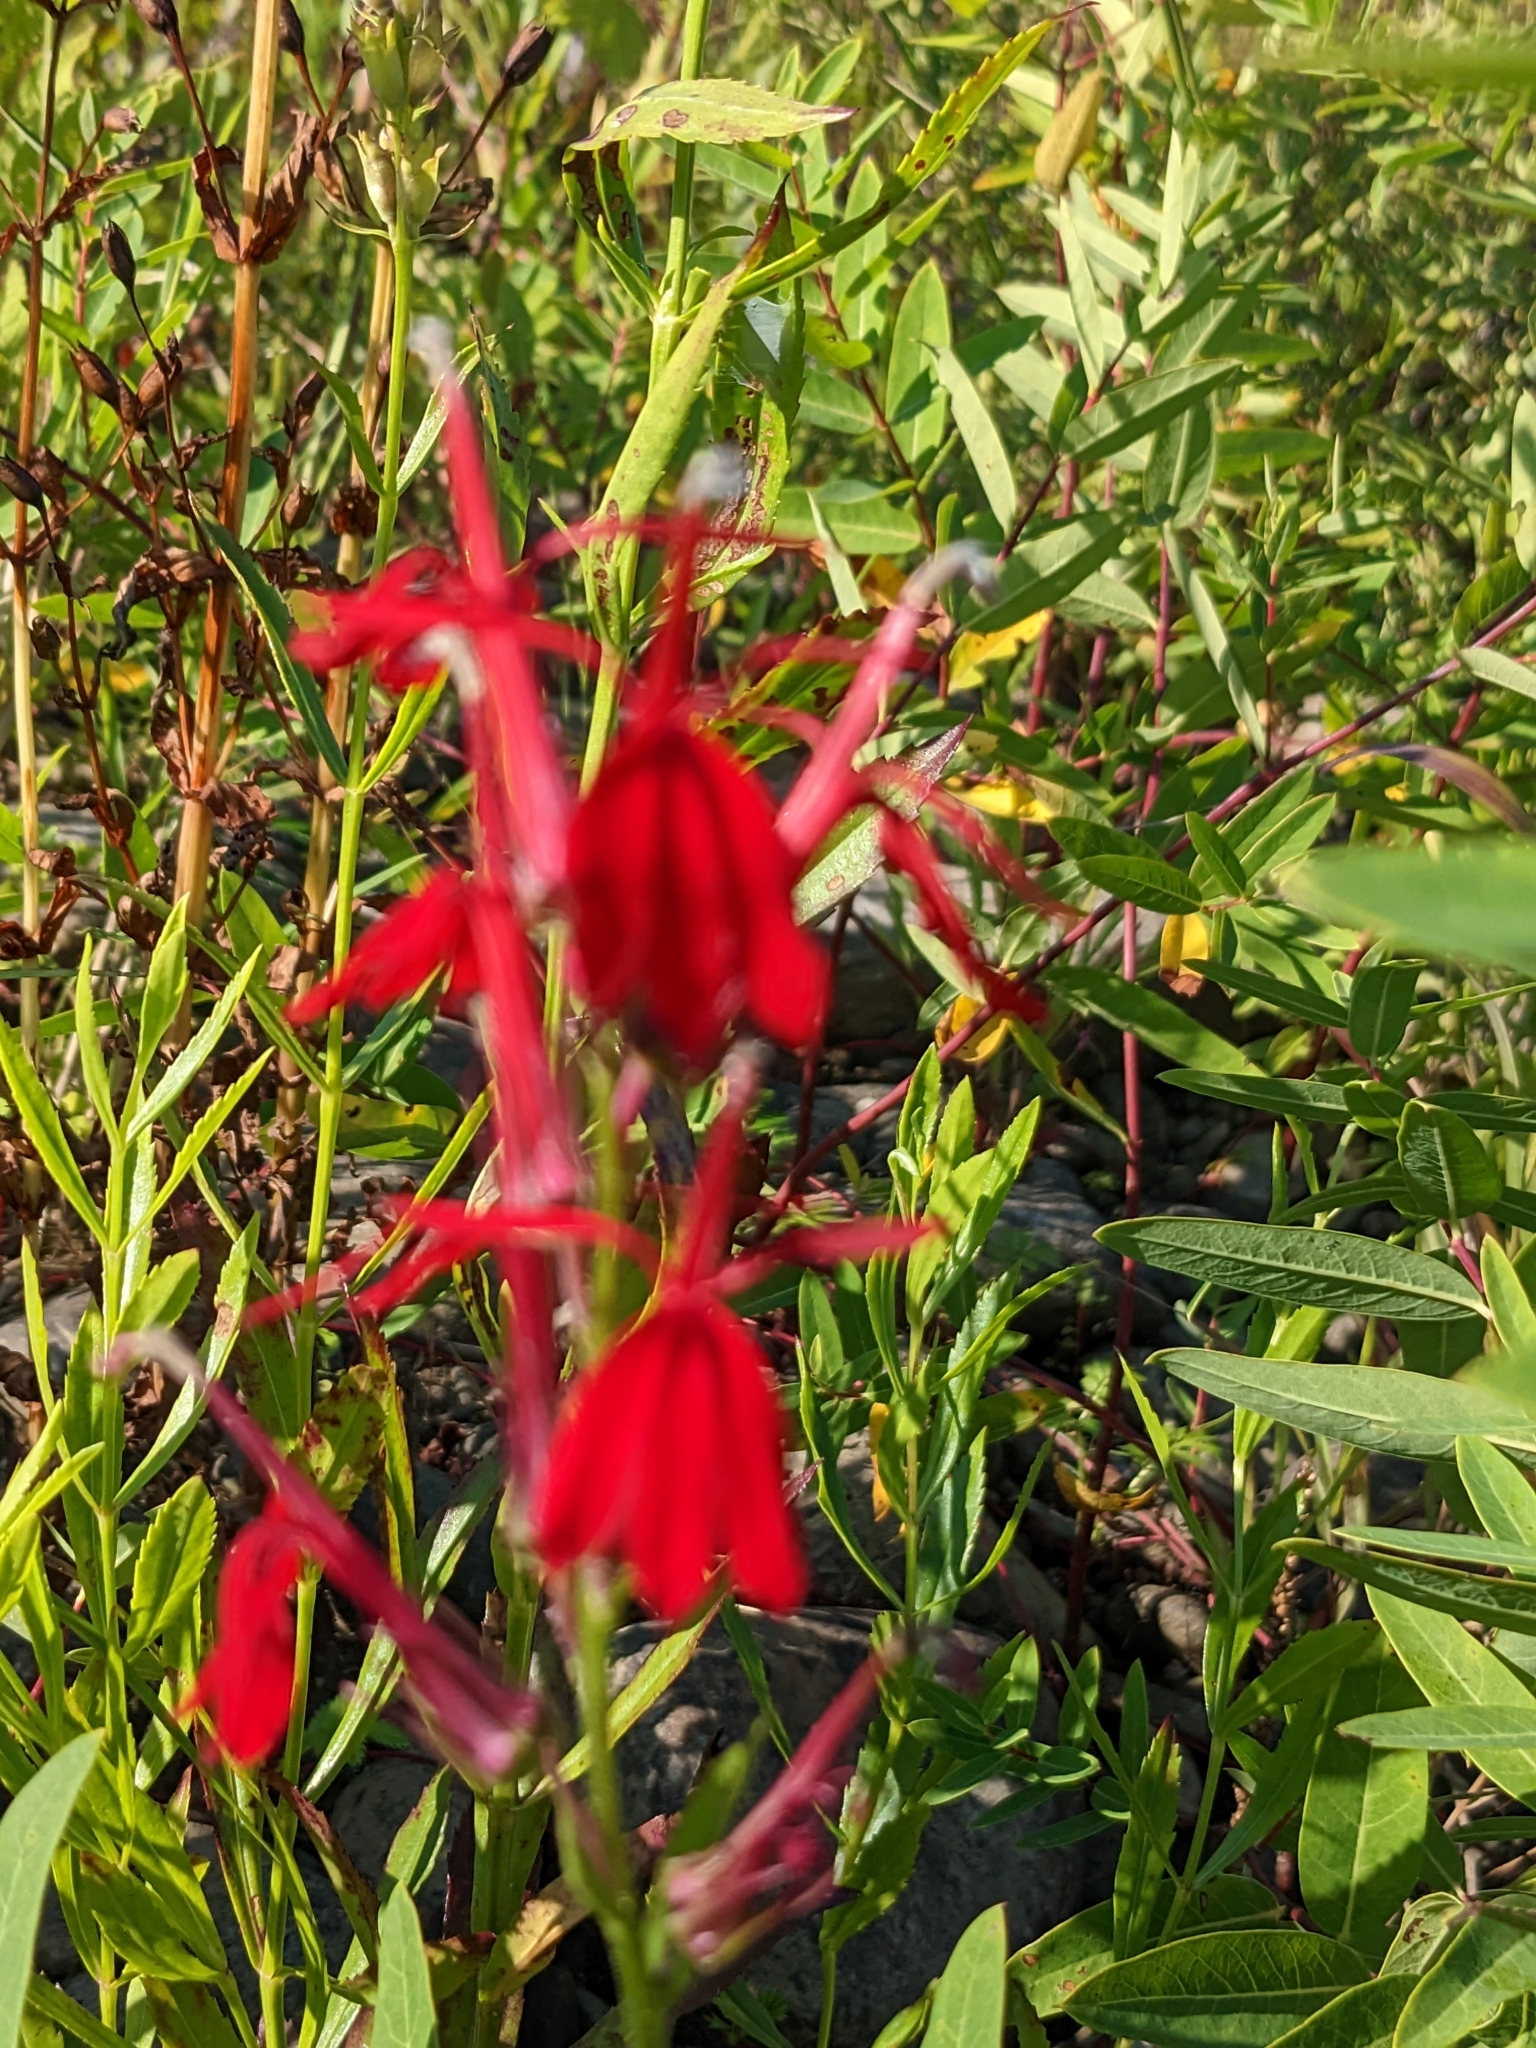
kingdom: Plantae
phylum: Tracheophyta
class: Magnoliopsida
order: Asterales
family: Campanulaceae
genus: Lobelia
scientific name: Lobelia cardinalis
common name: Cardinal flower
